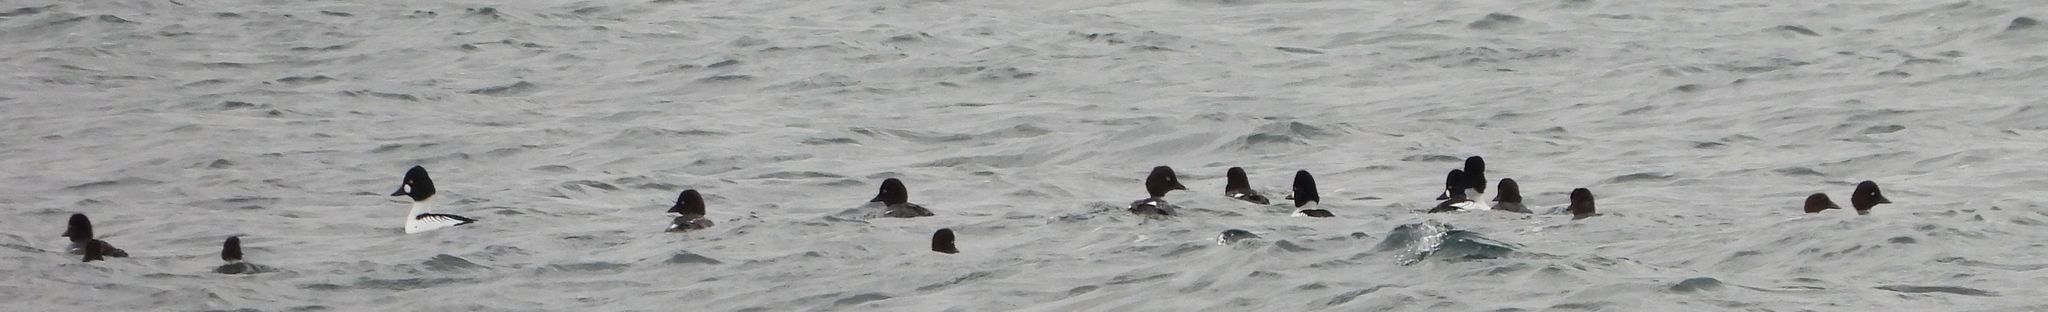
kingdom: Animalia
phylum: Chordata
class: Aves
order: Anseriformes
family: Anatidae
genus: Bucephala
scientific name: Bucephala clangula
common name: Common goldeneye
